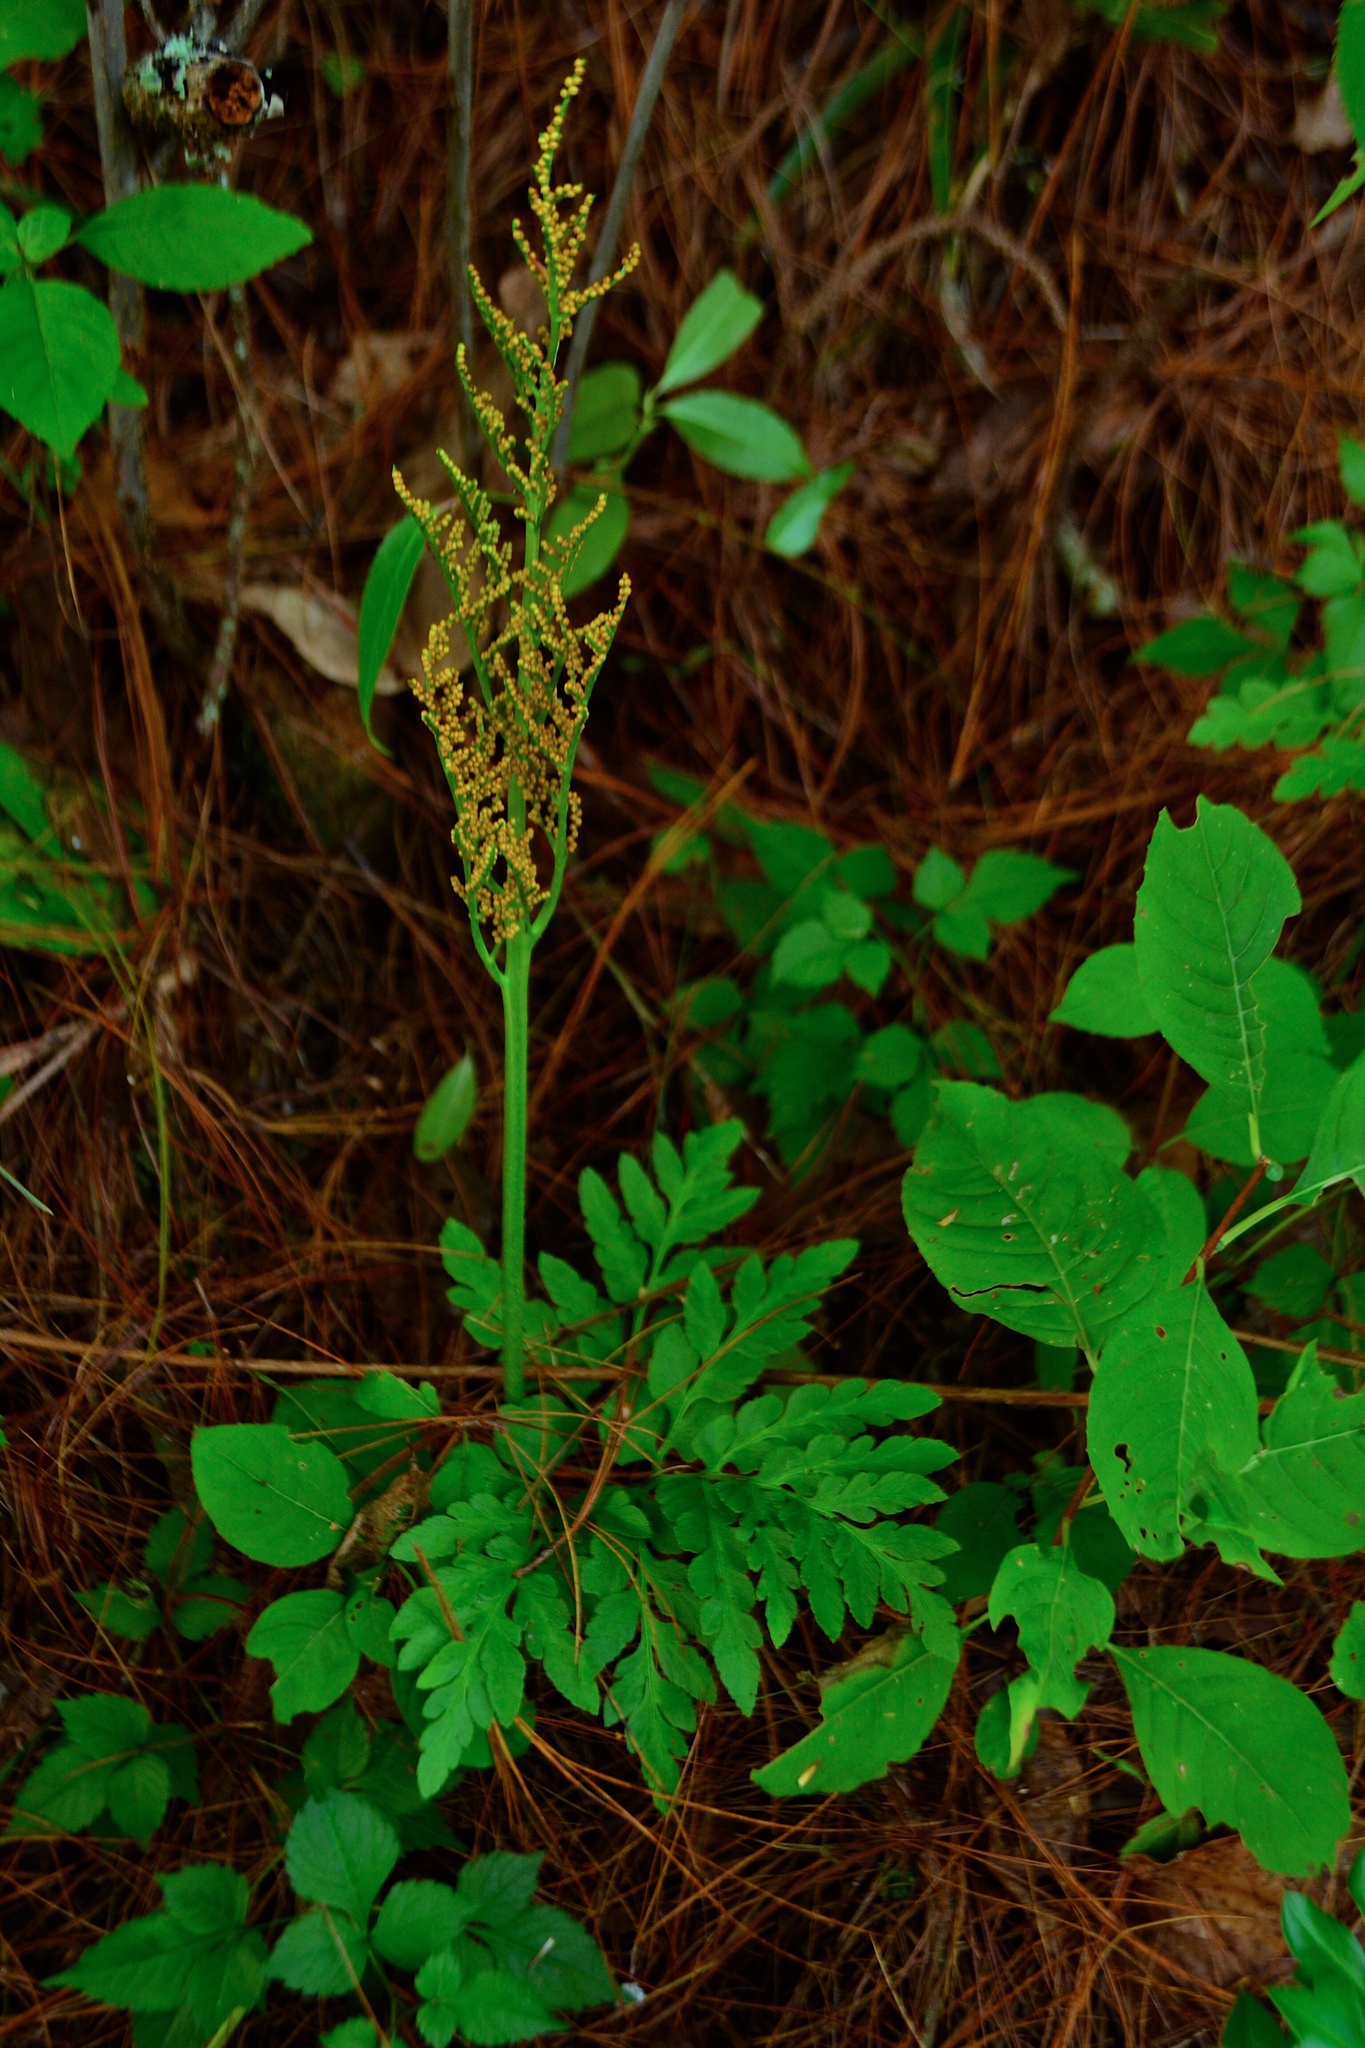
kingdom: Plantae
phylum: Tracheophyta
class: Polypodiopsida
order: Ophioglossales
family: Ophioglossaceae
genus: Sceptridium
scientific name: Sceptridium decompositum
